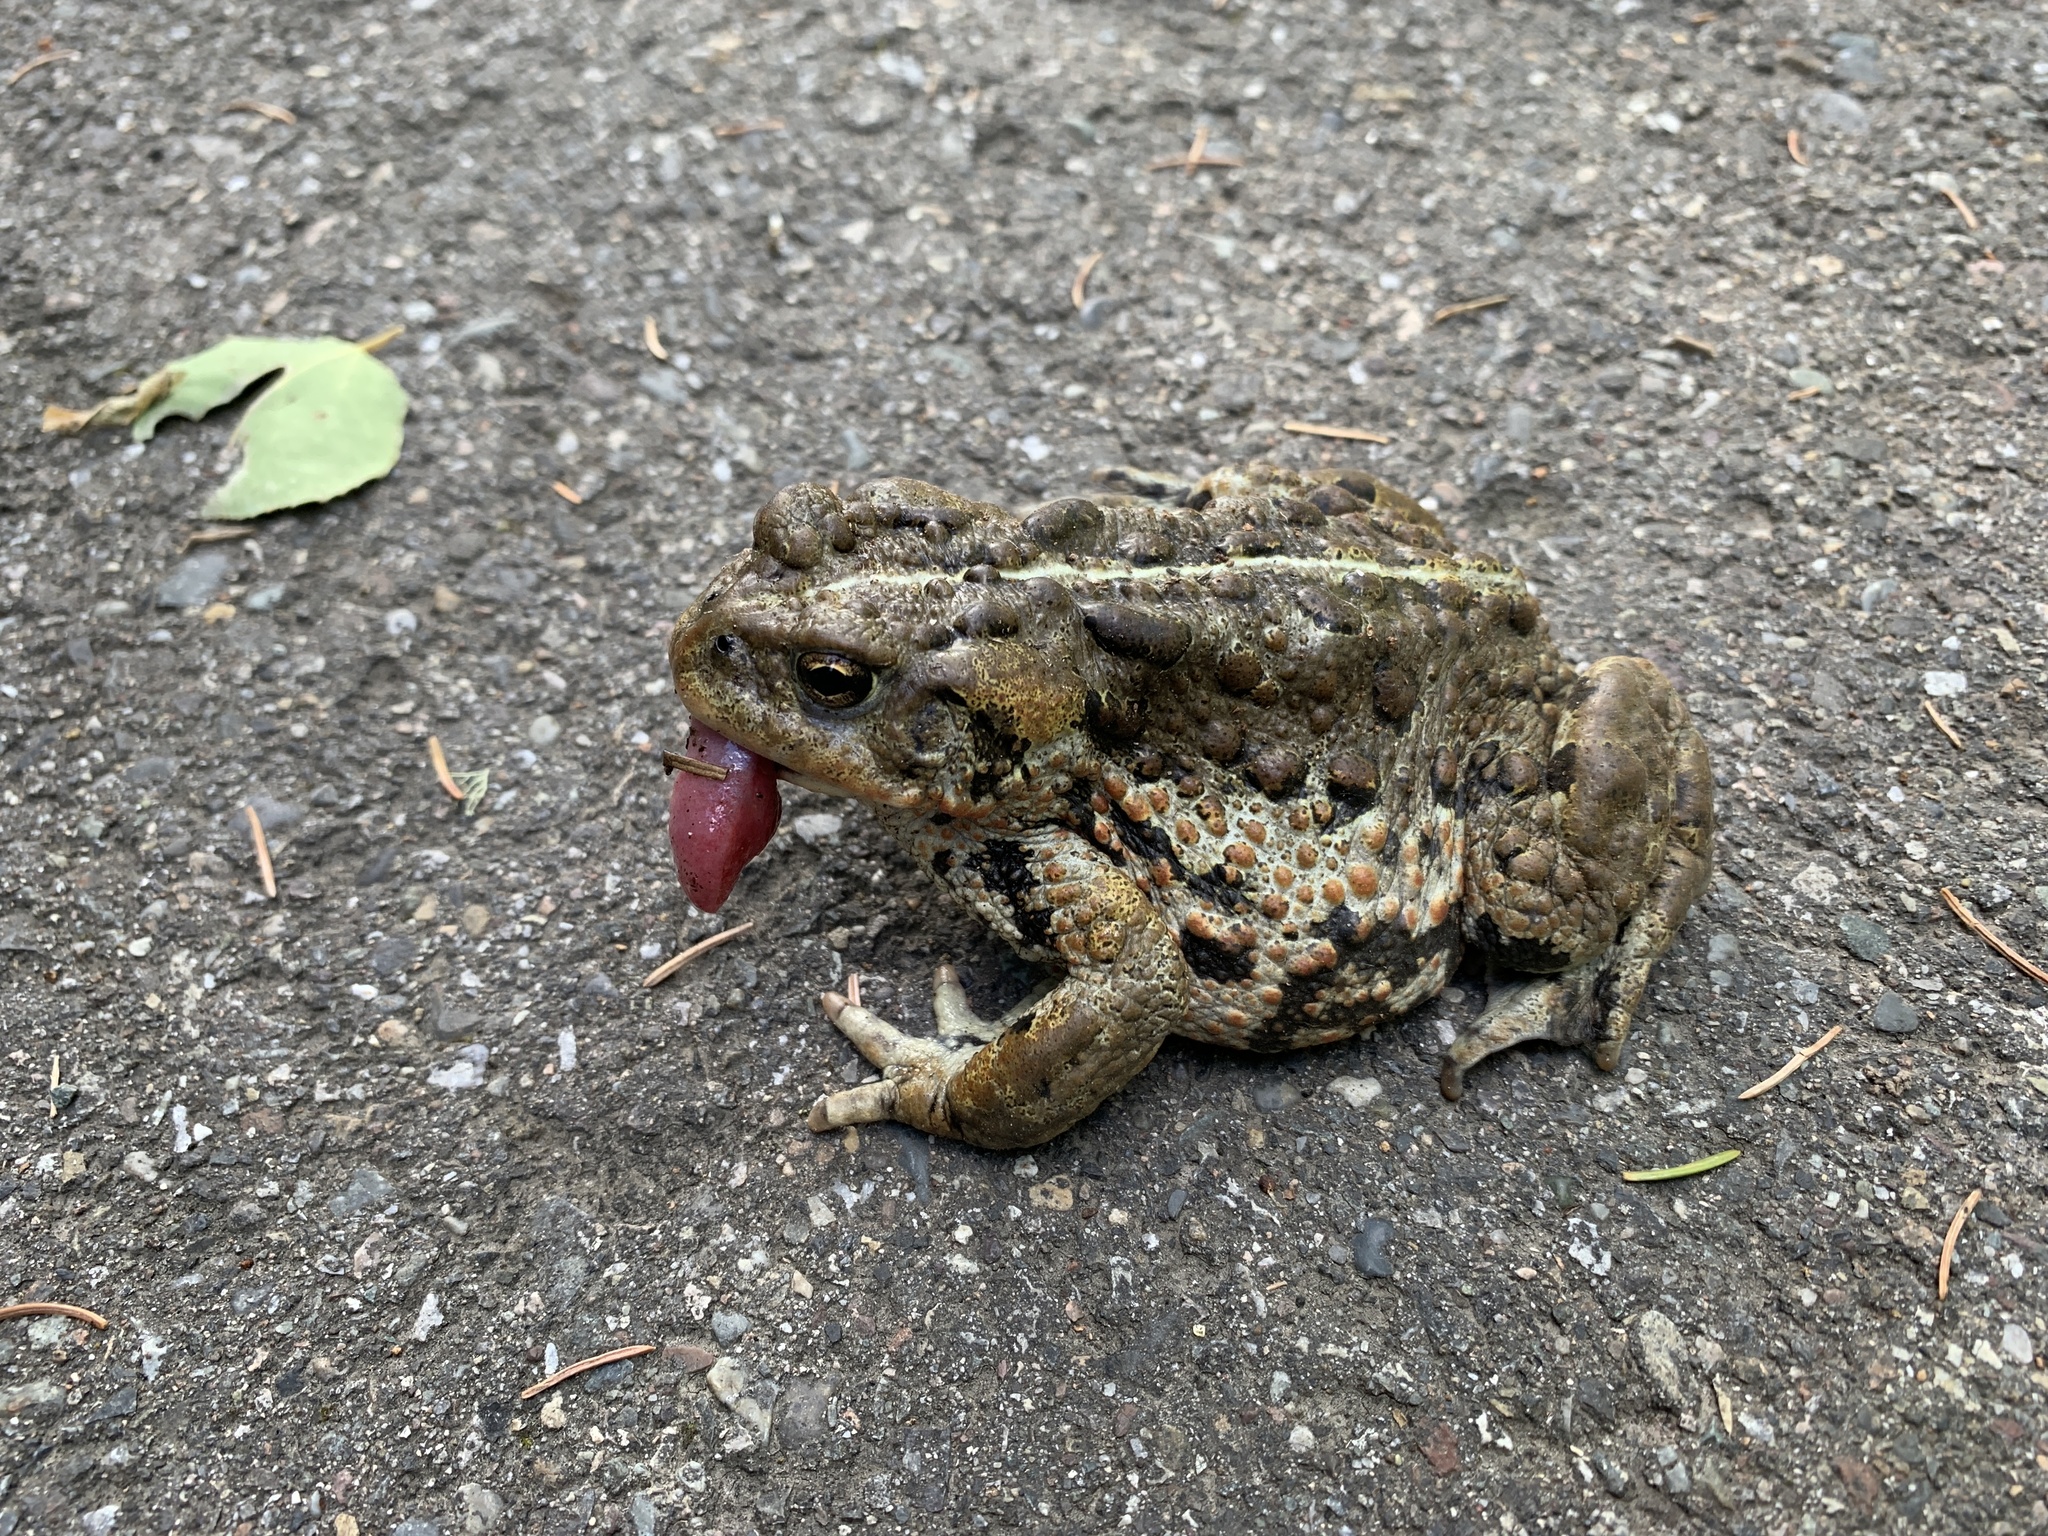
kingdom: Animalia
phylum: Chordata
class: Amphibia
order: Anura
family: Bufonidae
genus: Anaxyrus
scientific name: Anaxyrus boreas
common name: Western toad
